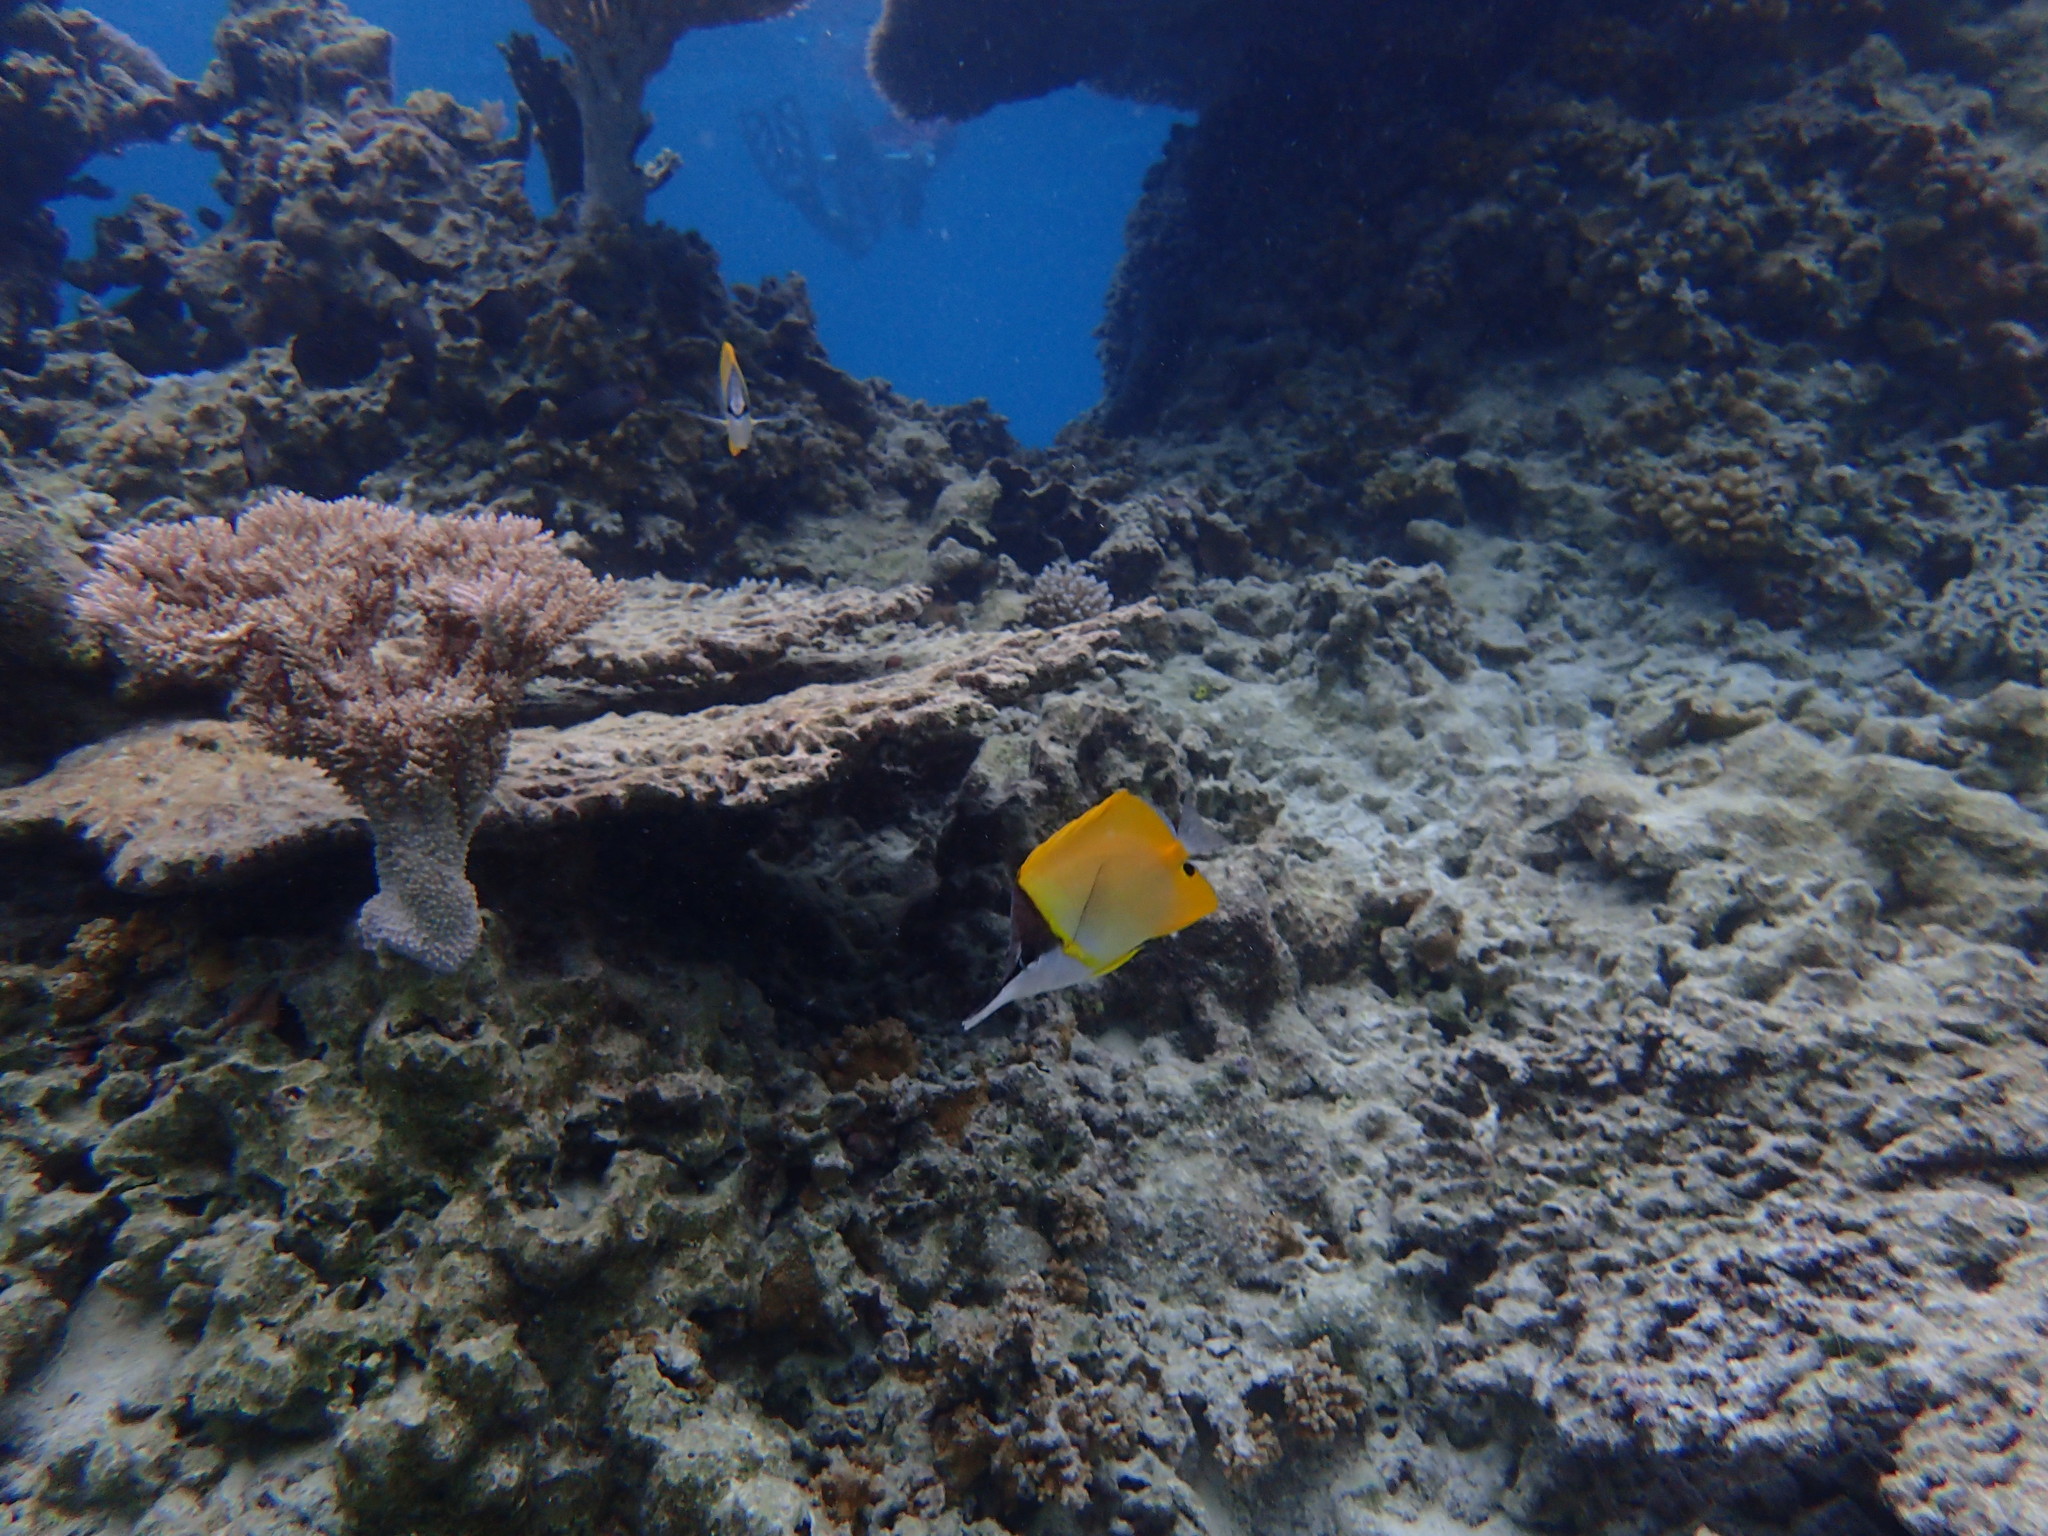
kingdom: Animalia
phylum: Chordata
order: Perciformes
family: Chaetodontidae
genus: Forcipiger
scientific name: Forcipiger flavissimus
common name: Forcepsfish
